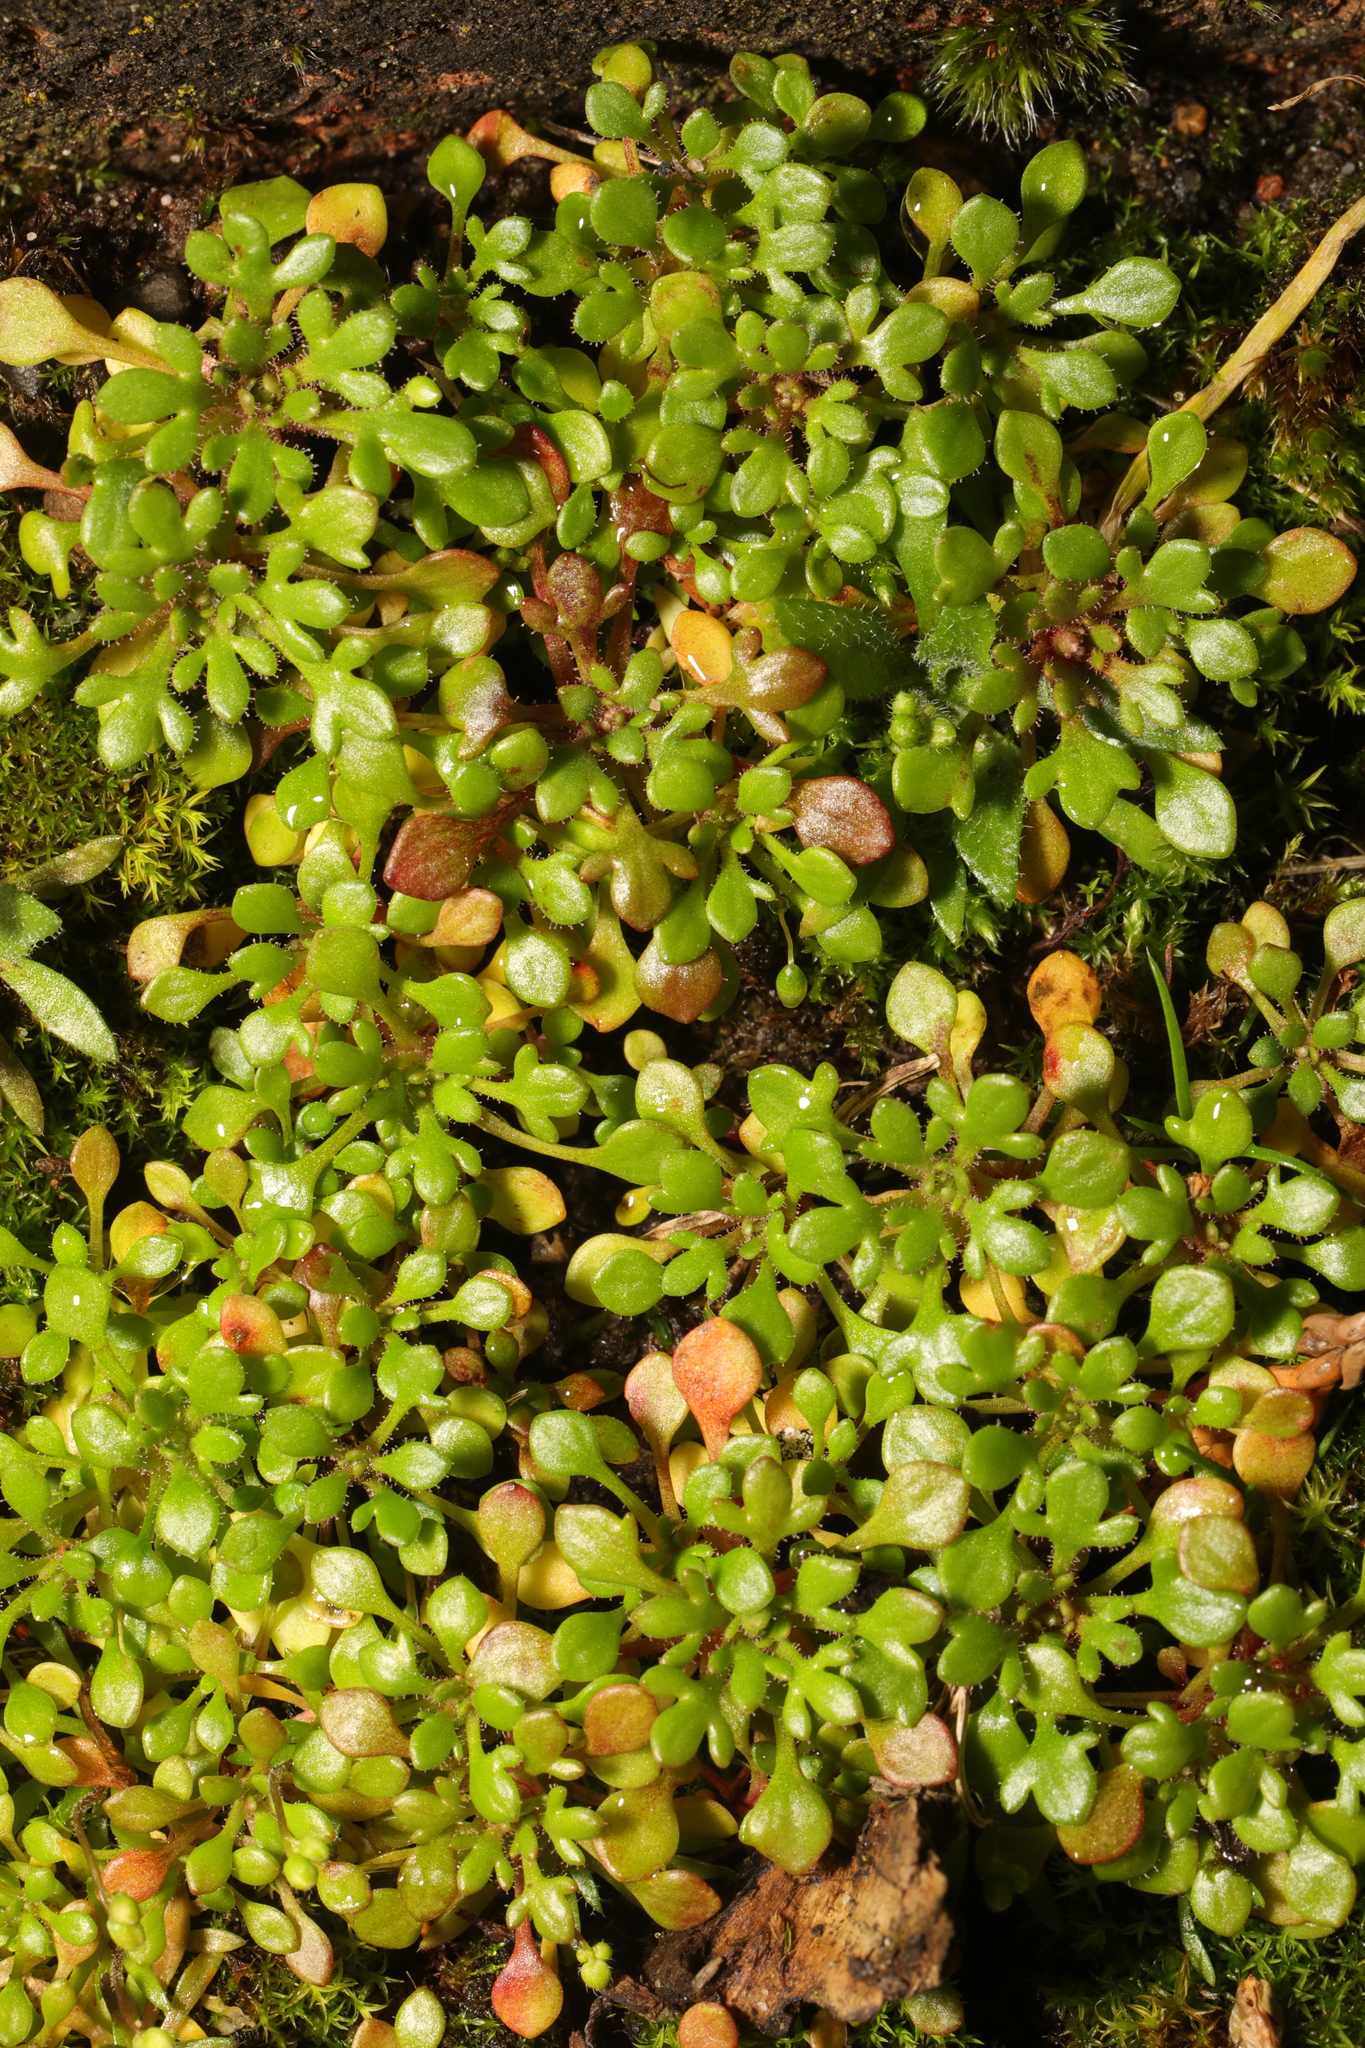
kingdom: Plantae
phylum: Tracheophyta
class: Magnoliopsida
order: Saxifragales
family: Saxifragaceae
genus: Saxifraga
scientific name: Saxifraga tridactylites
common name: Rue-leaved saxifrage
